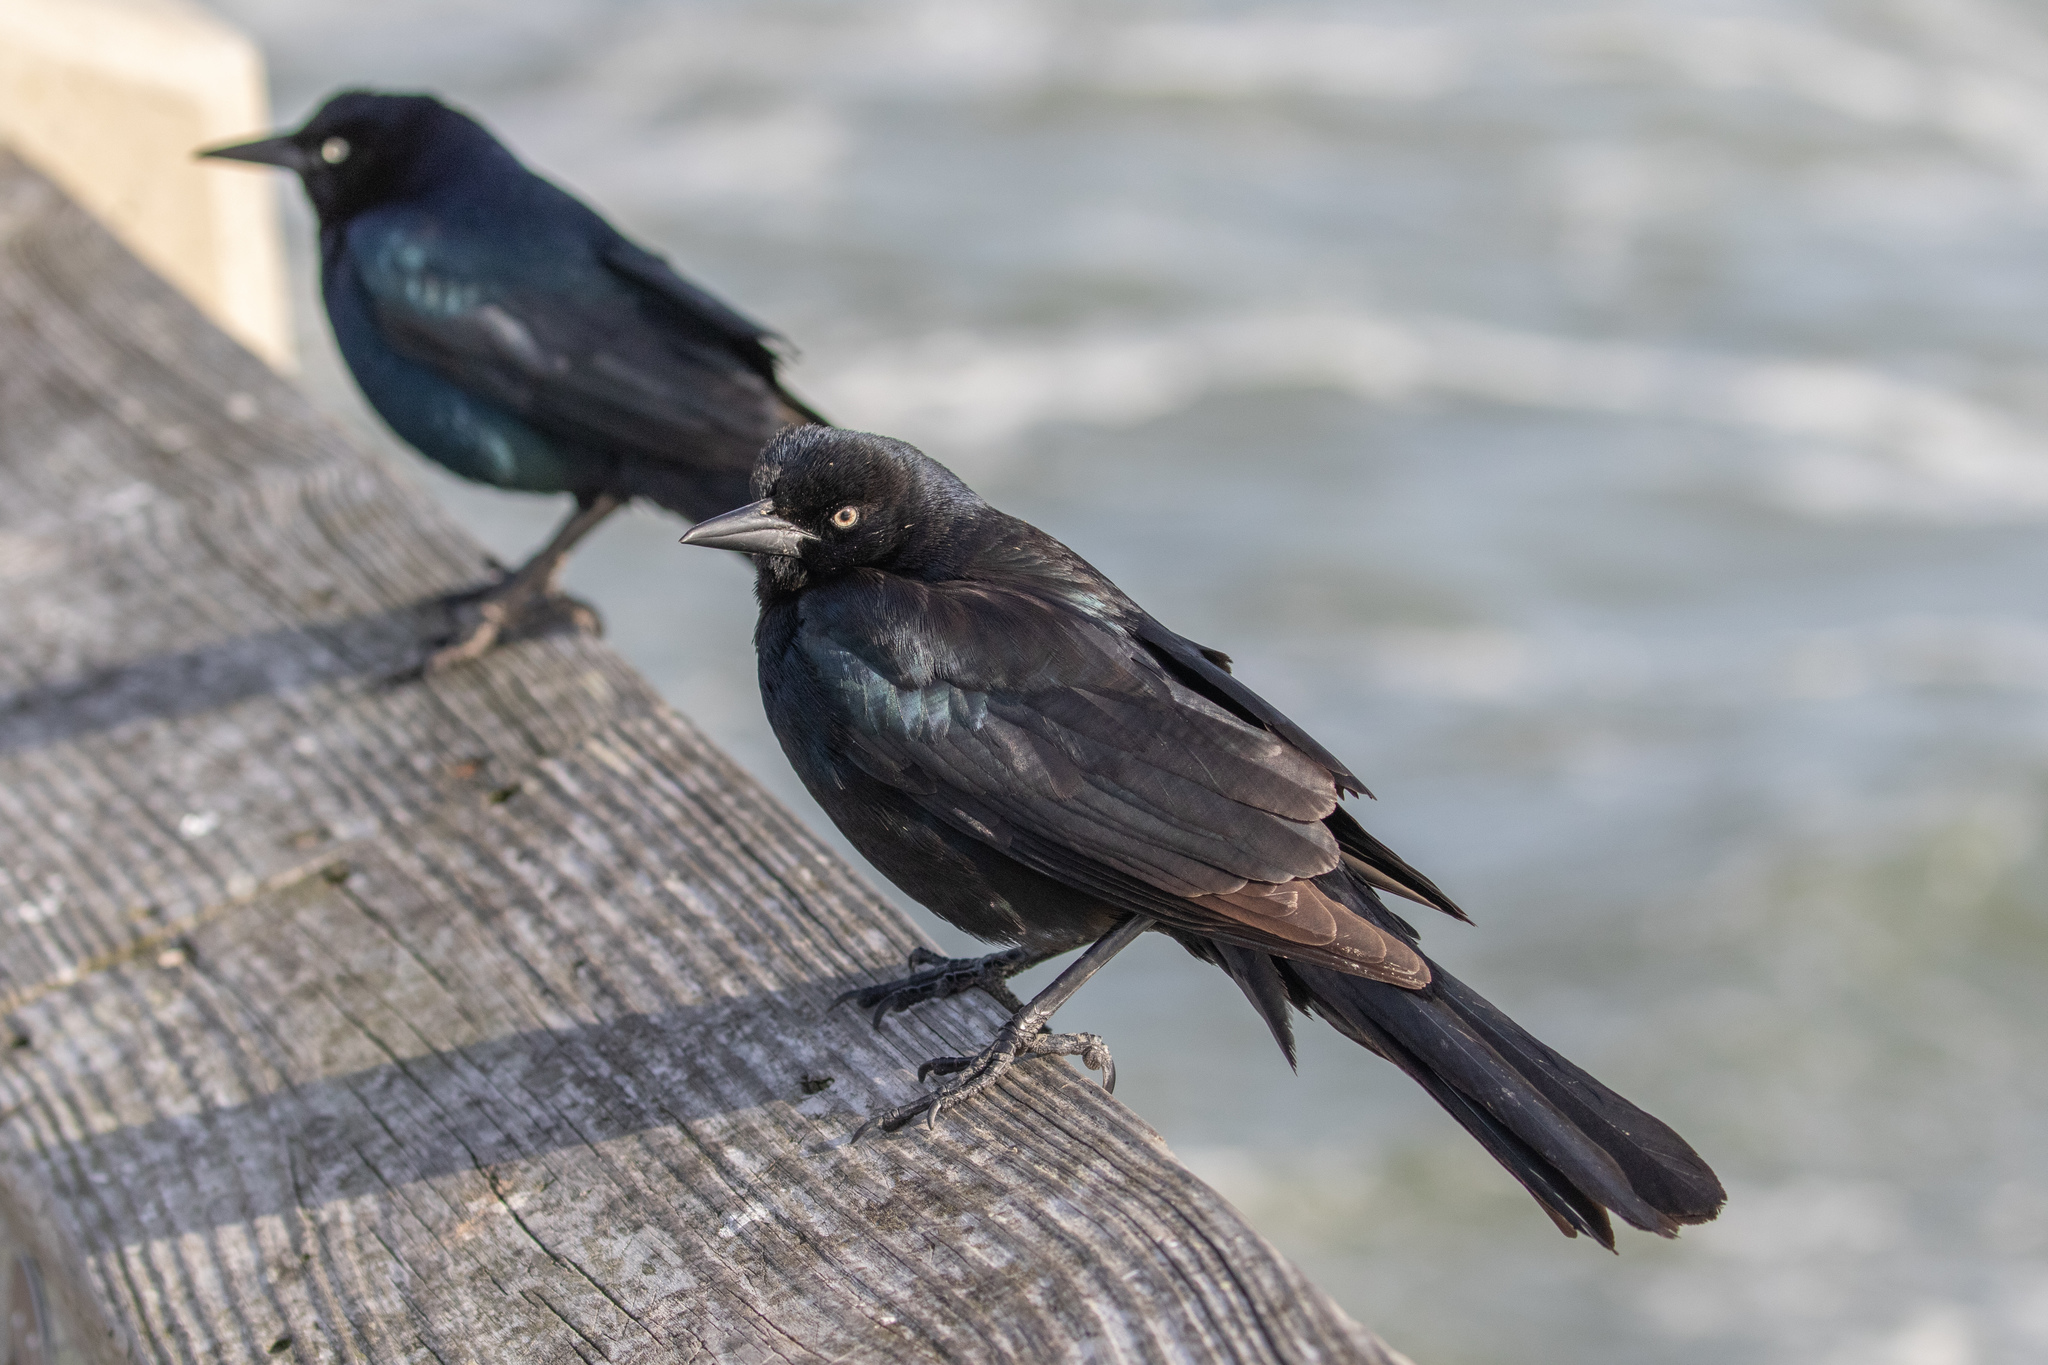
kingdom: Animalia
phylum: Chordata
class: Aves
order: Passeriformes
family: Icteridae
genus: Quiscalus
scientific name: Quiscalus major
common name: Boat-tailed grackle
